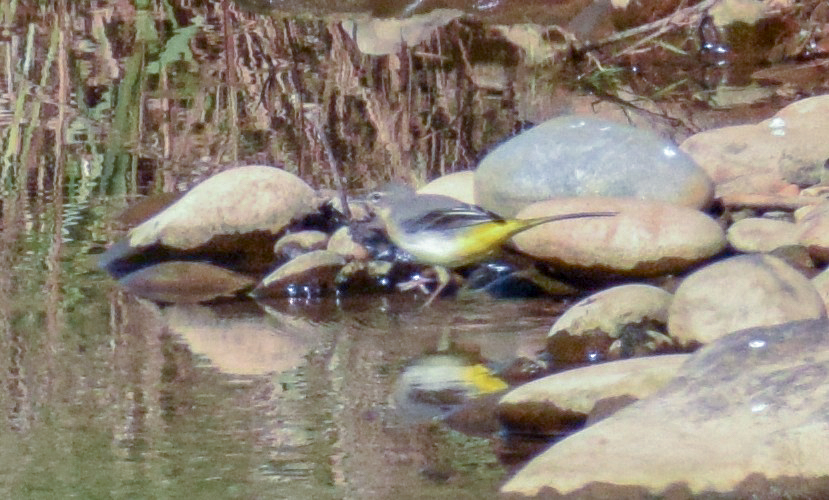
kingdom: Animalia
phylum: Chordata
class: Aves
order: Passeriformes
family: Motacillidae
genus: Motacilla
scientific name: Motacilla cinerea
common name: Grey wagtail
